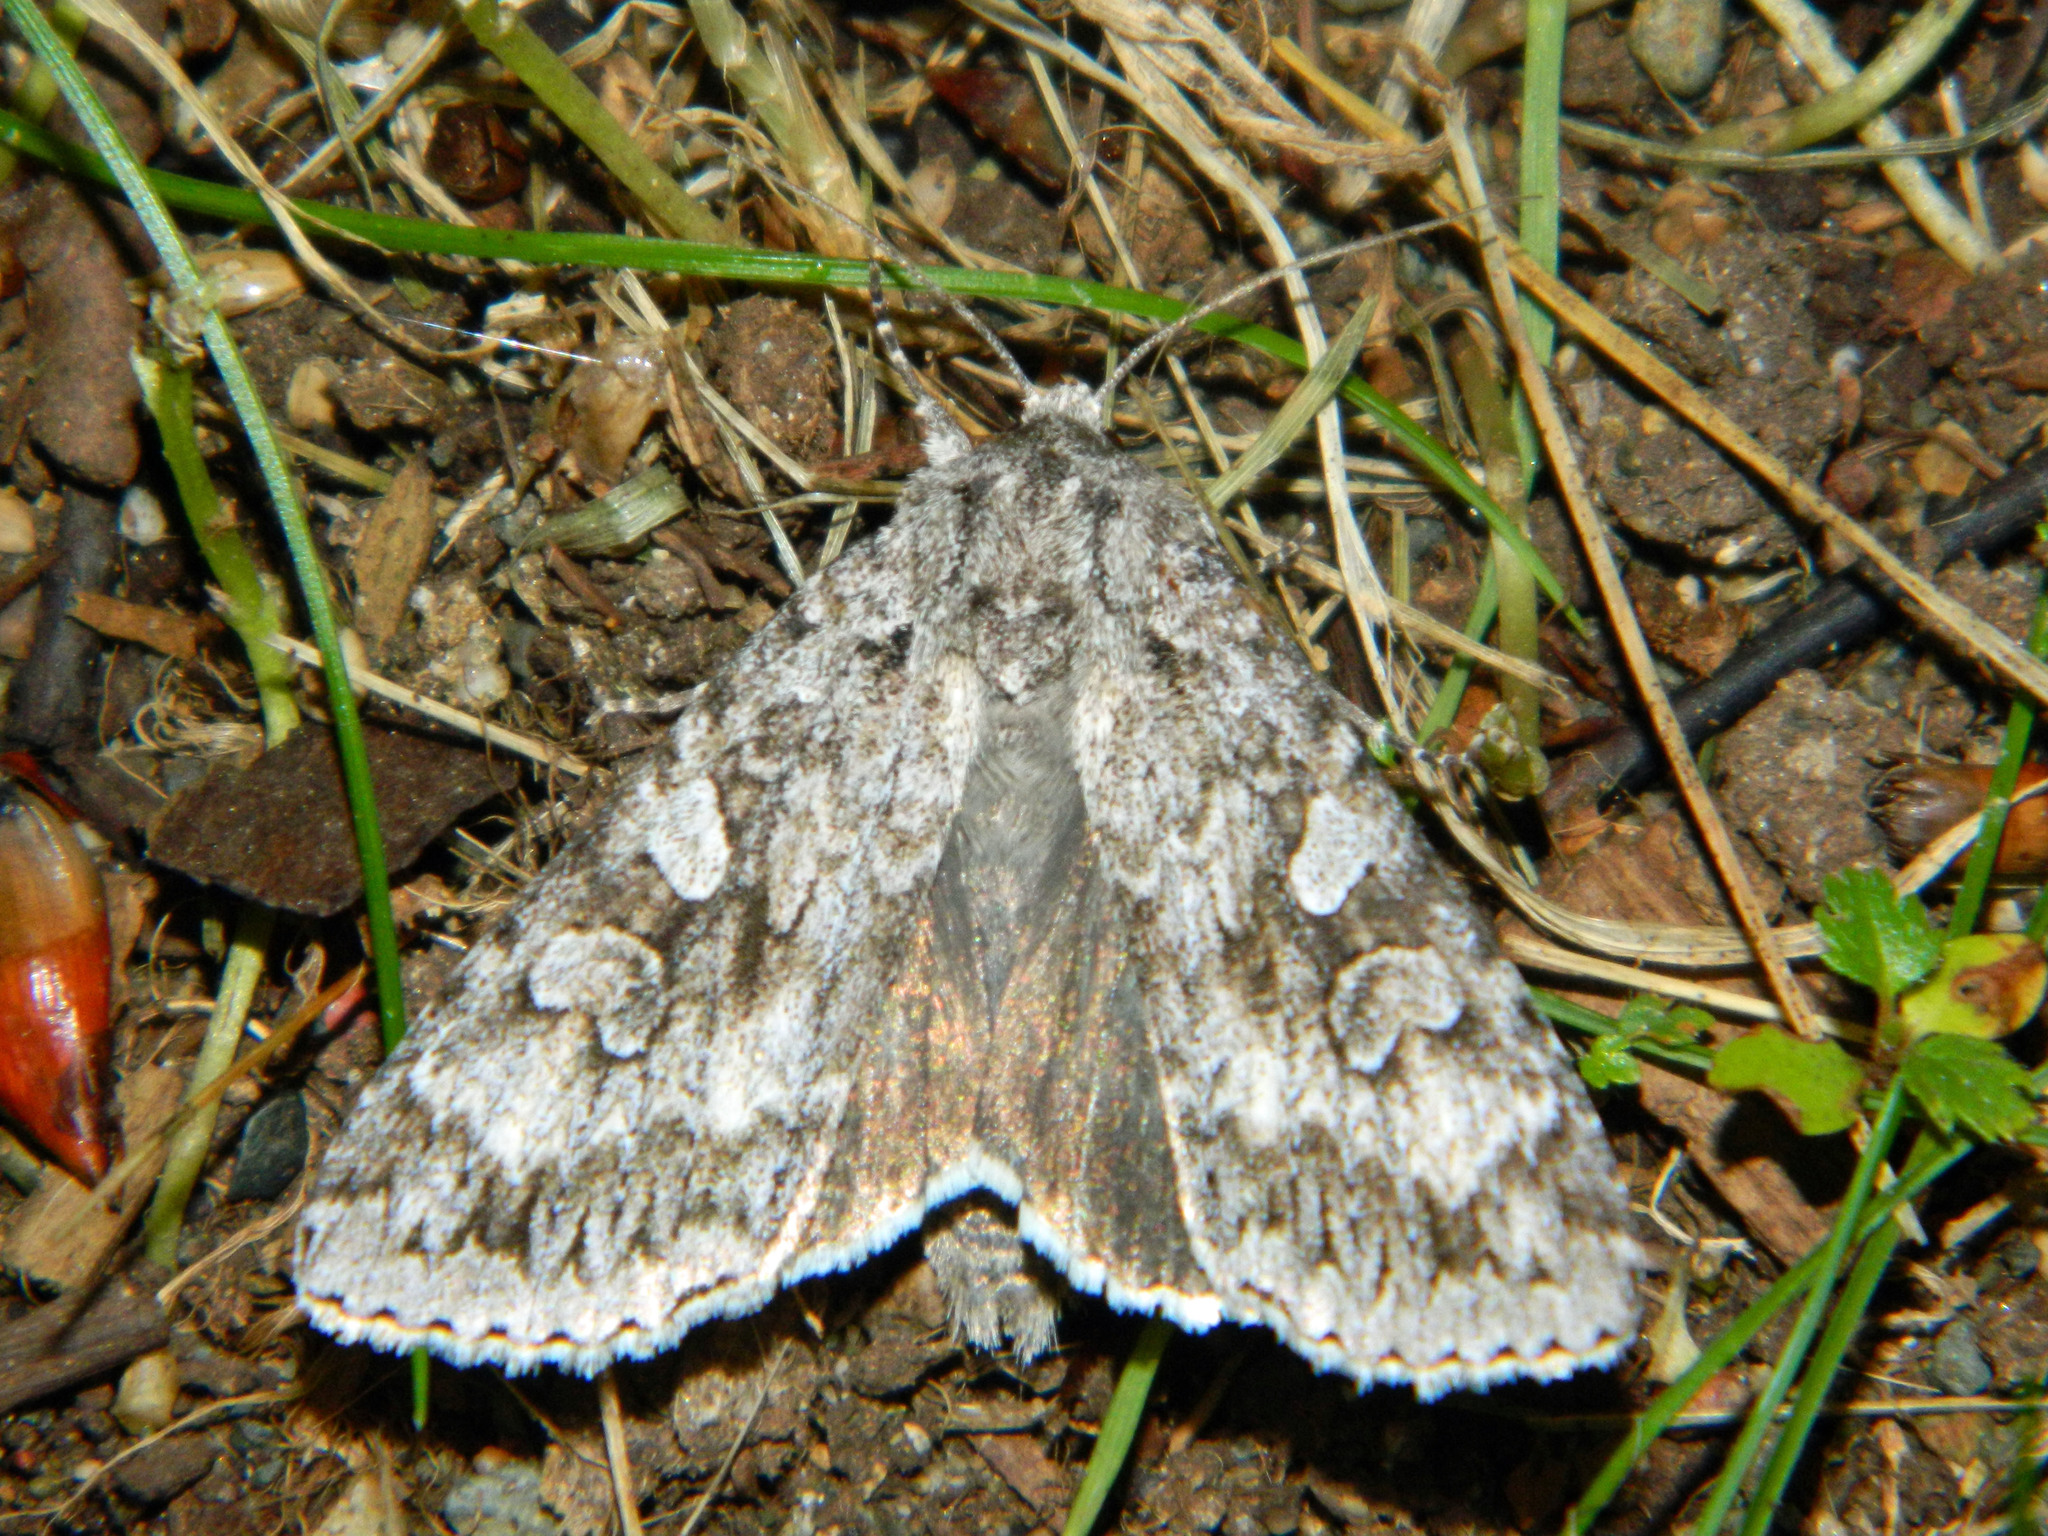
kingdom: Animalia
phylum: Arthropoda
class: Insecta
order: Lepidoptera
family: Noctuidae
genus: Eurois
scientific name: Eurois occulta
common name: Great brocade
